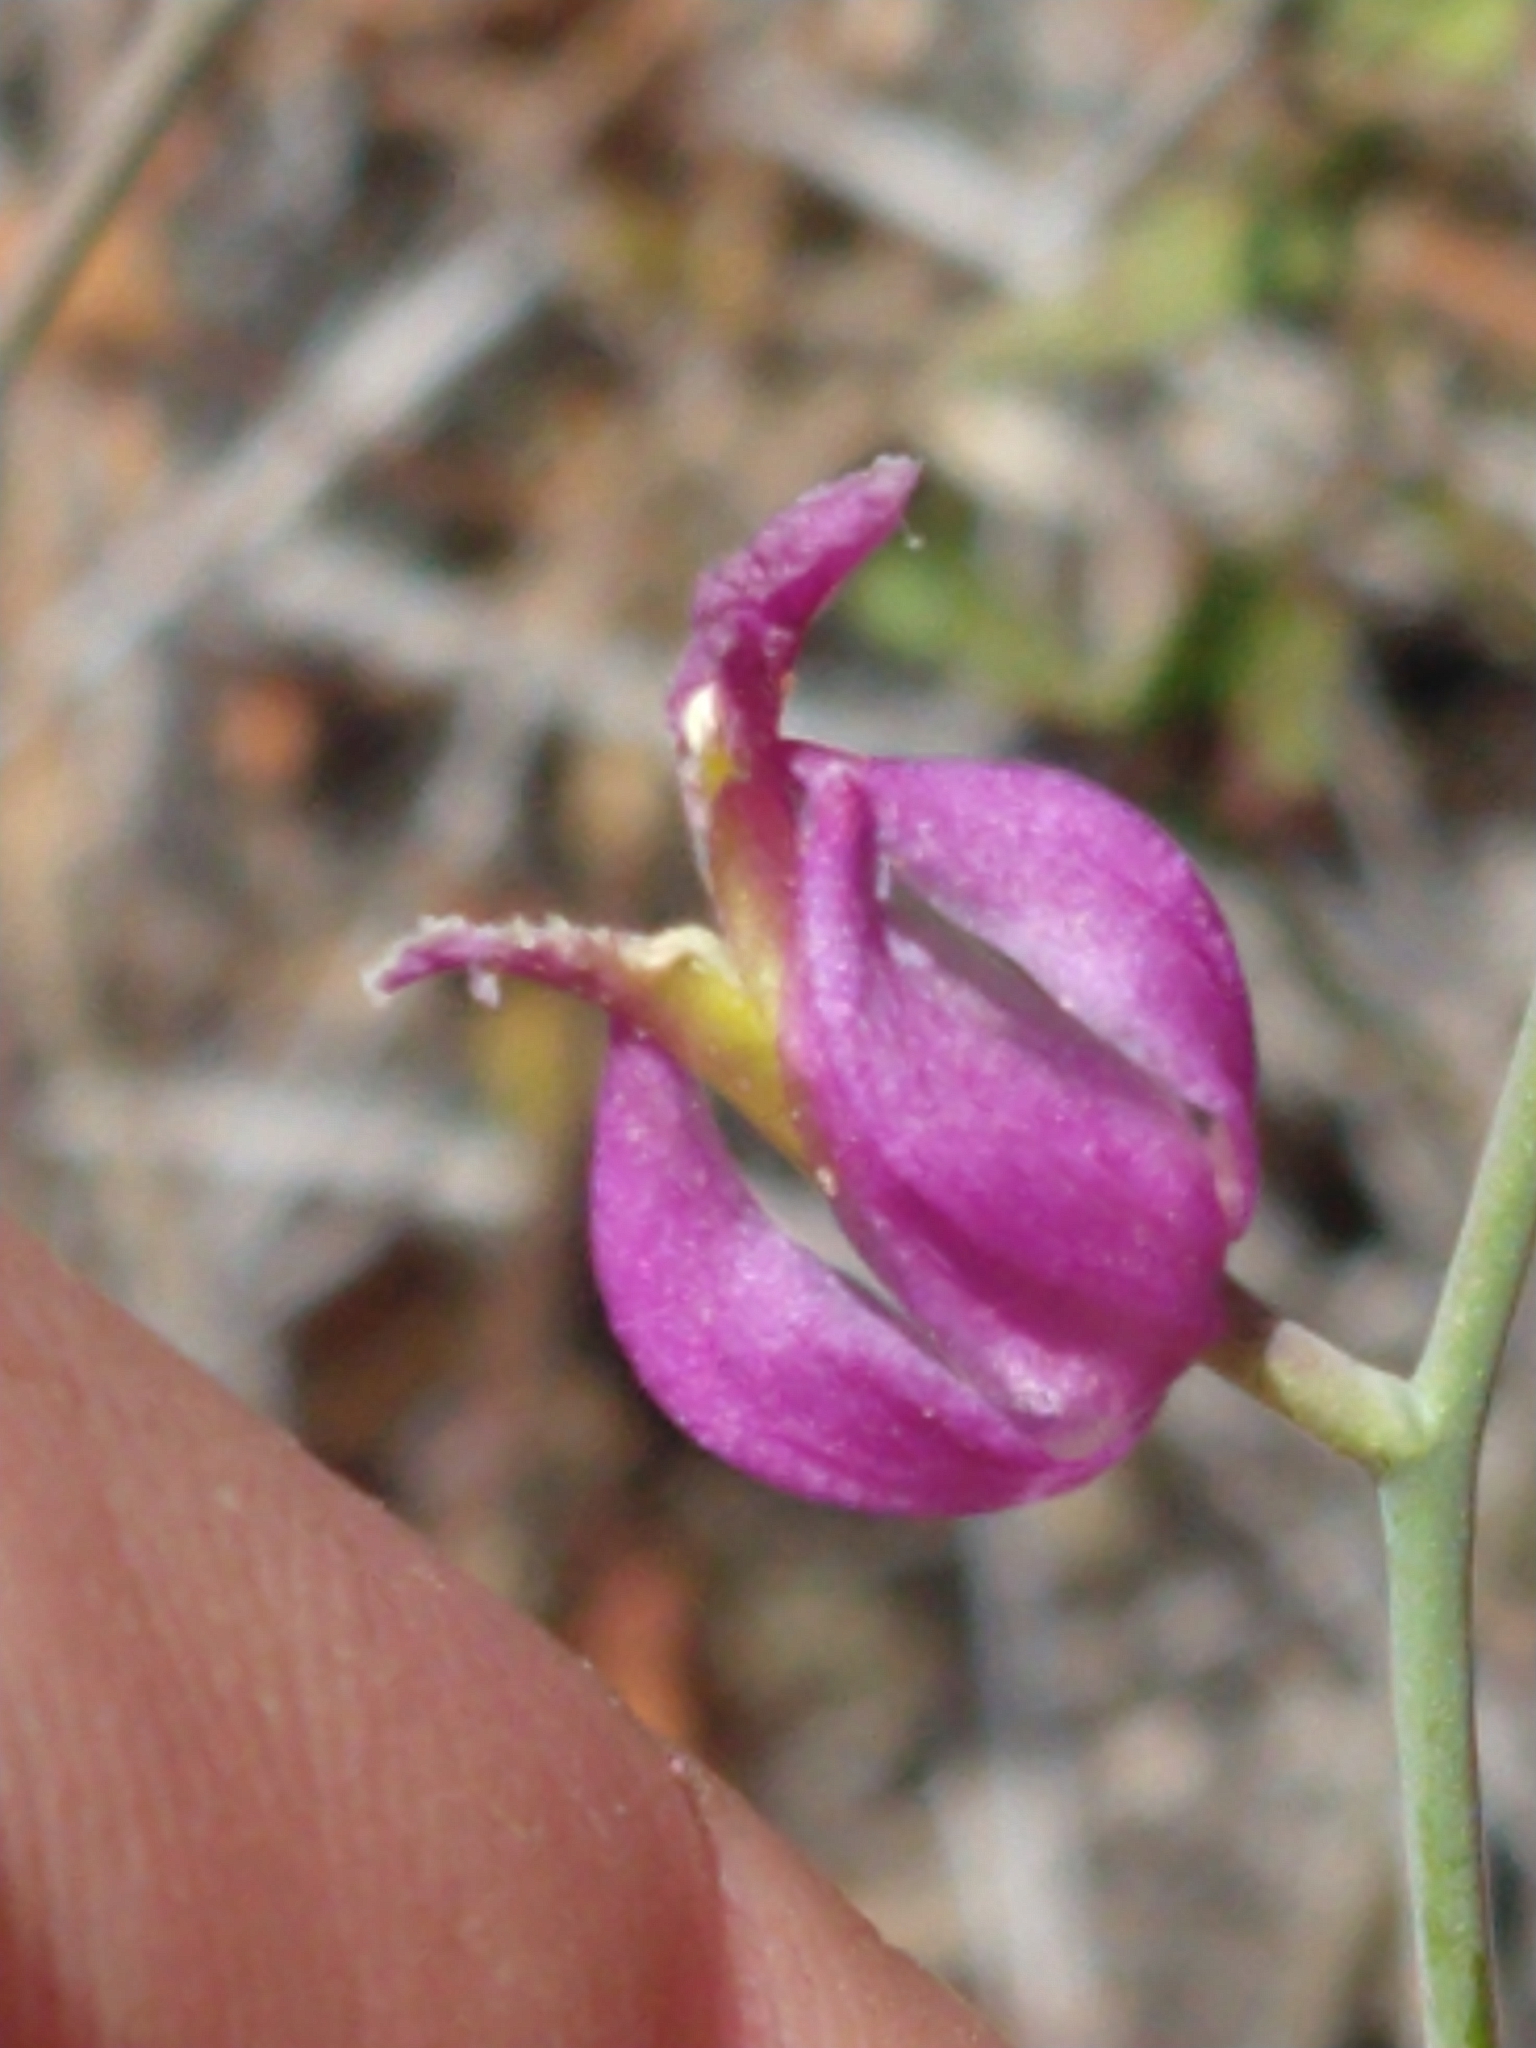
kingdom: Plantae
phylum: Tracheophyta
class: Magnoliopsida
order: Brassicales
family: Brassicaceae
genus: Streptanthus
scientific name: Streptanthus glandulosus
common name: Jewel-flower
